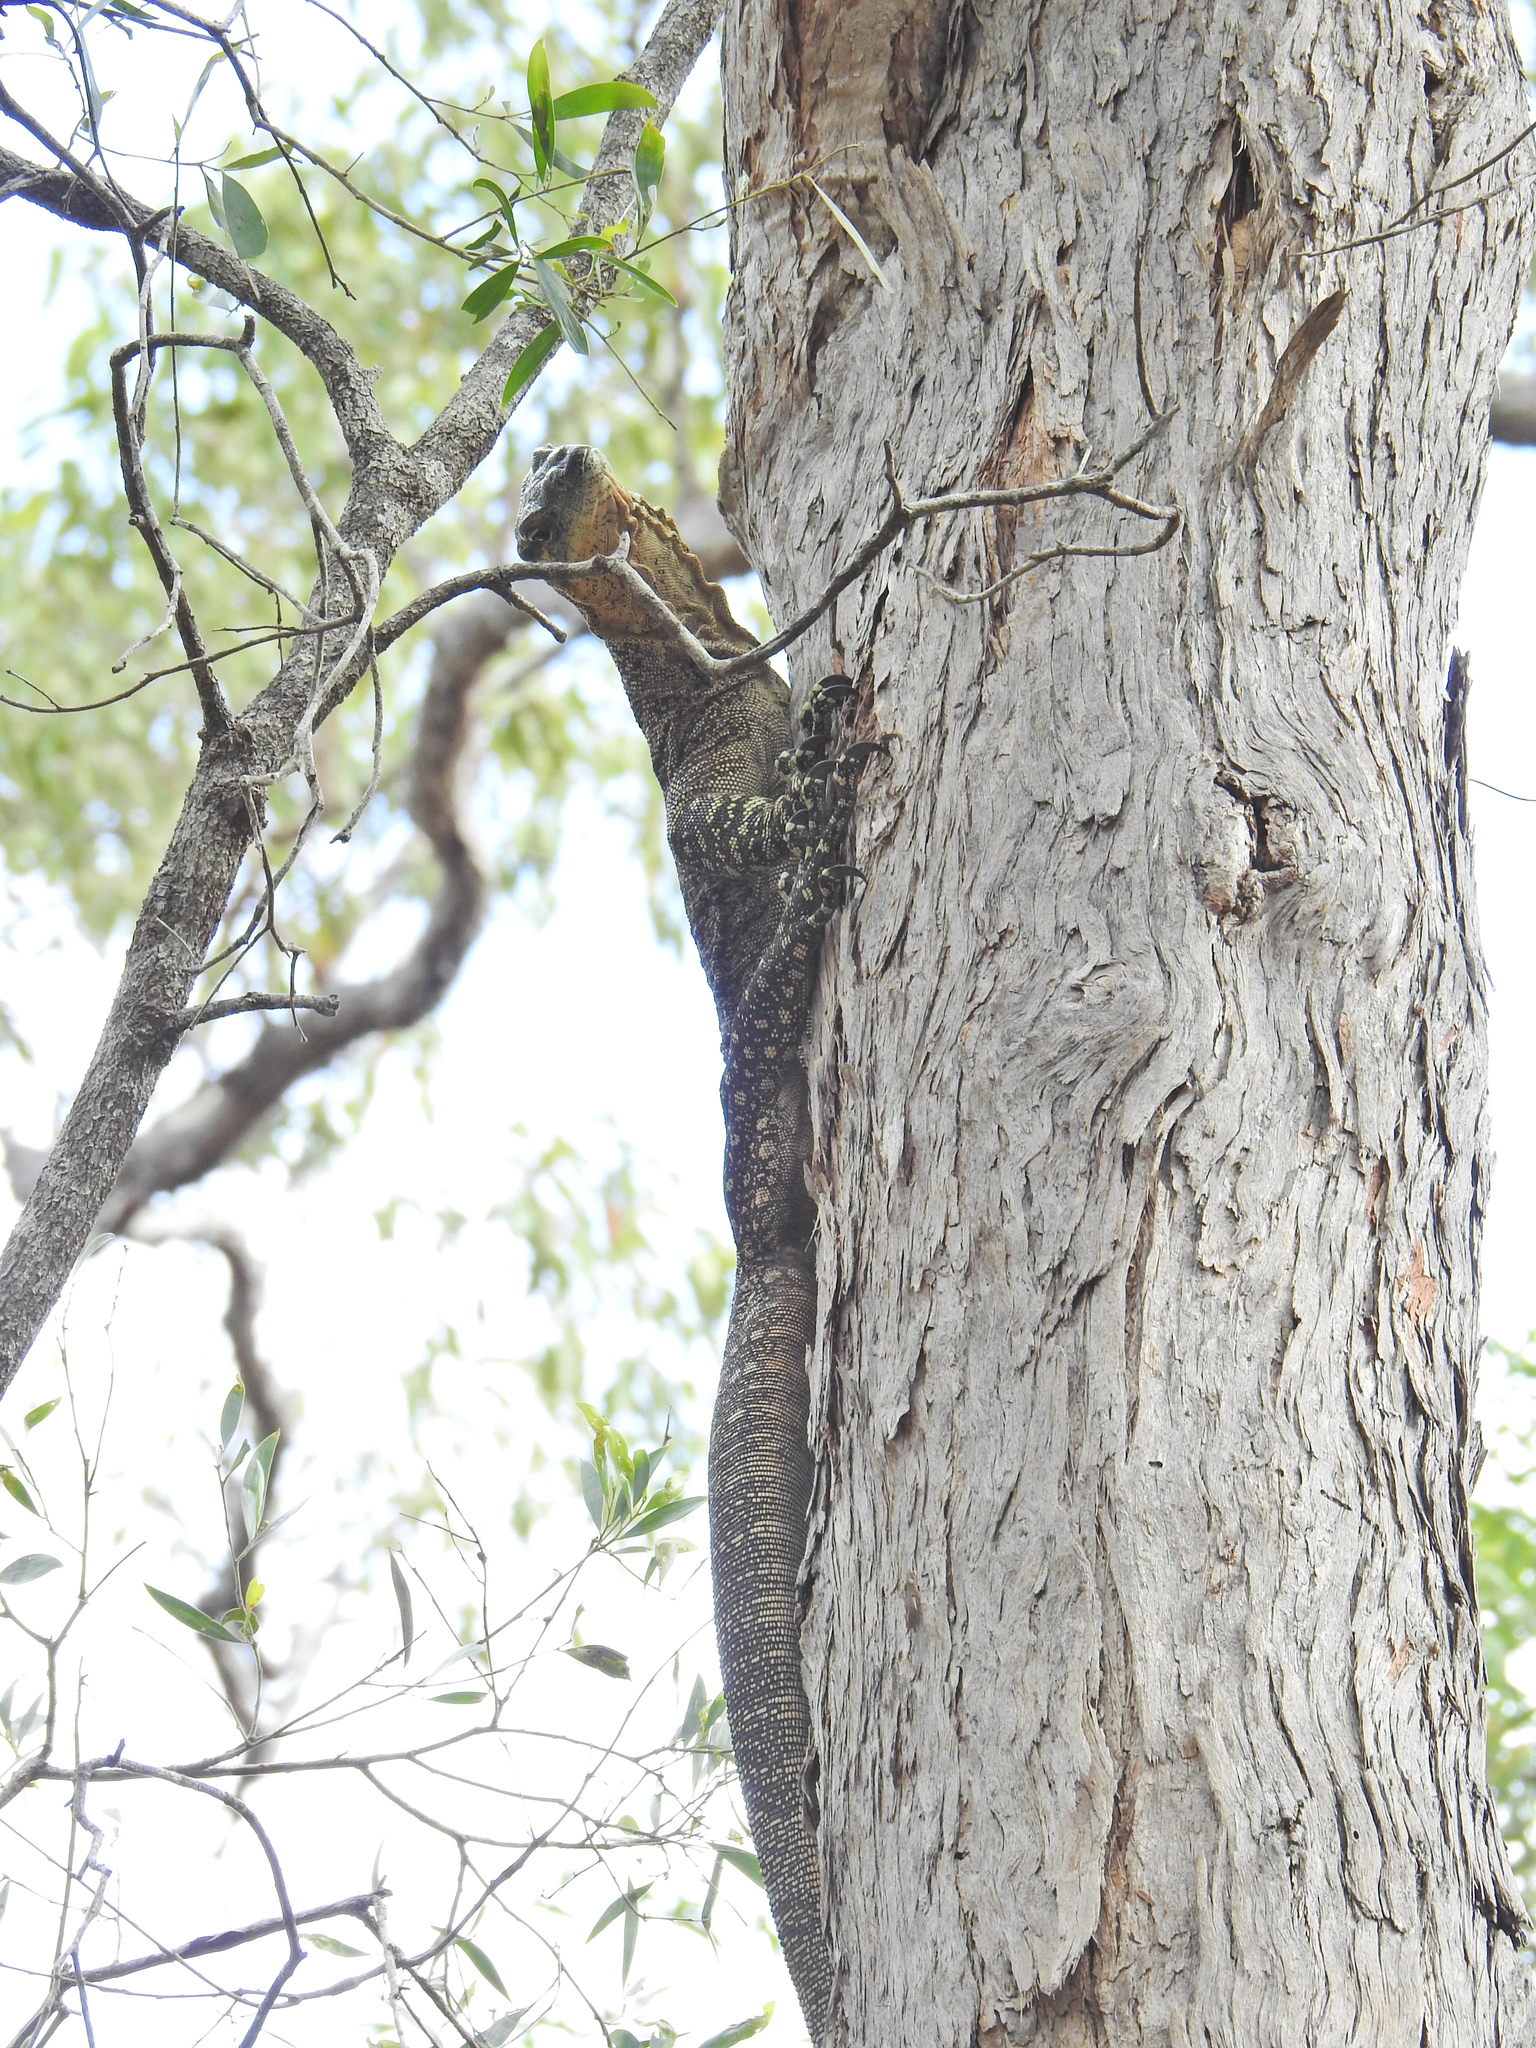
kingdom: Animalia
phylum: Chordata
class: Squamata
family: Varanidae
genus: Varanus
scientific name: Varanus varius
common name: Lace monitor
